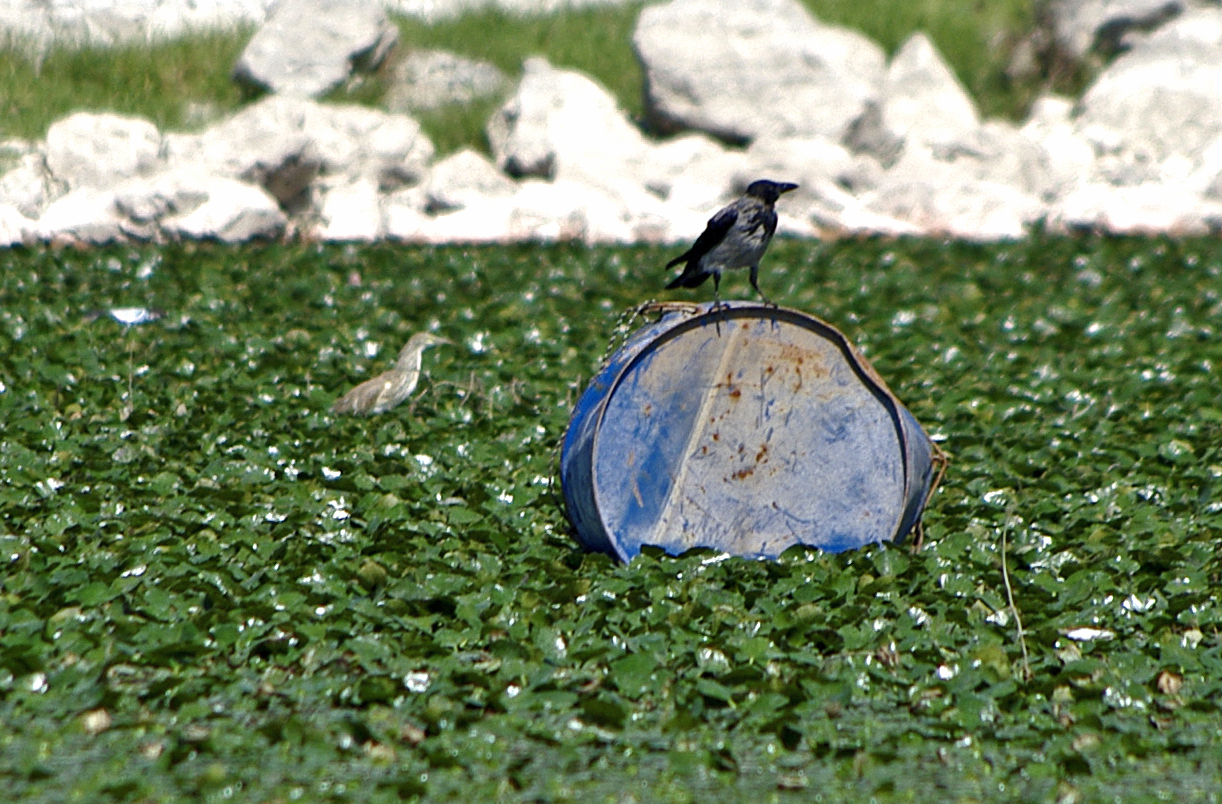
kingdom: Animalia
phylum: Chordata
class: Aves
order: Pelecaniformes
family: Ardeidae
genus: Ardeola
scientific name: Ardeola ralloides
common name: Squacco heron
